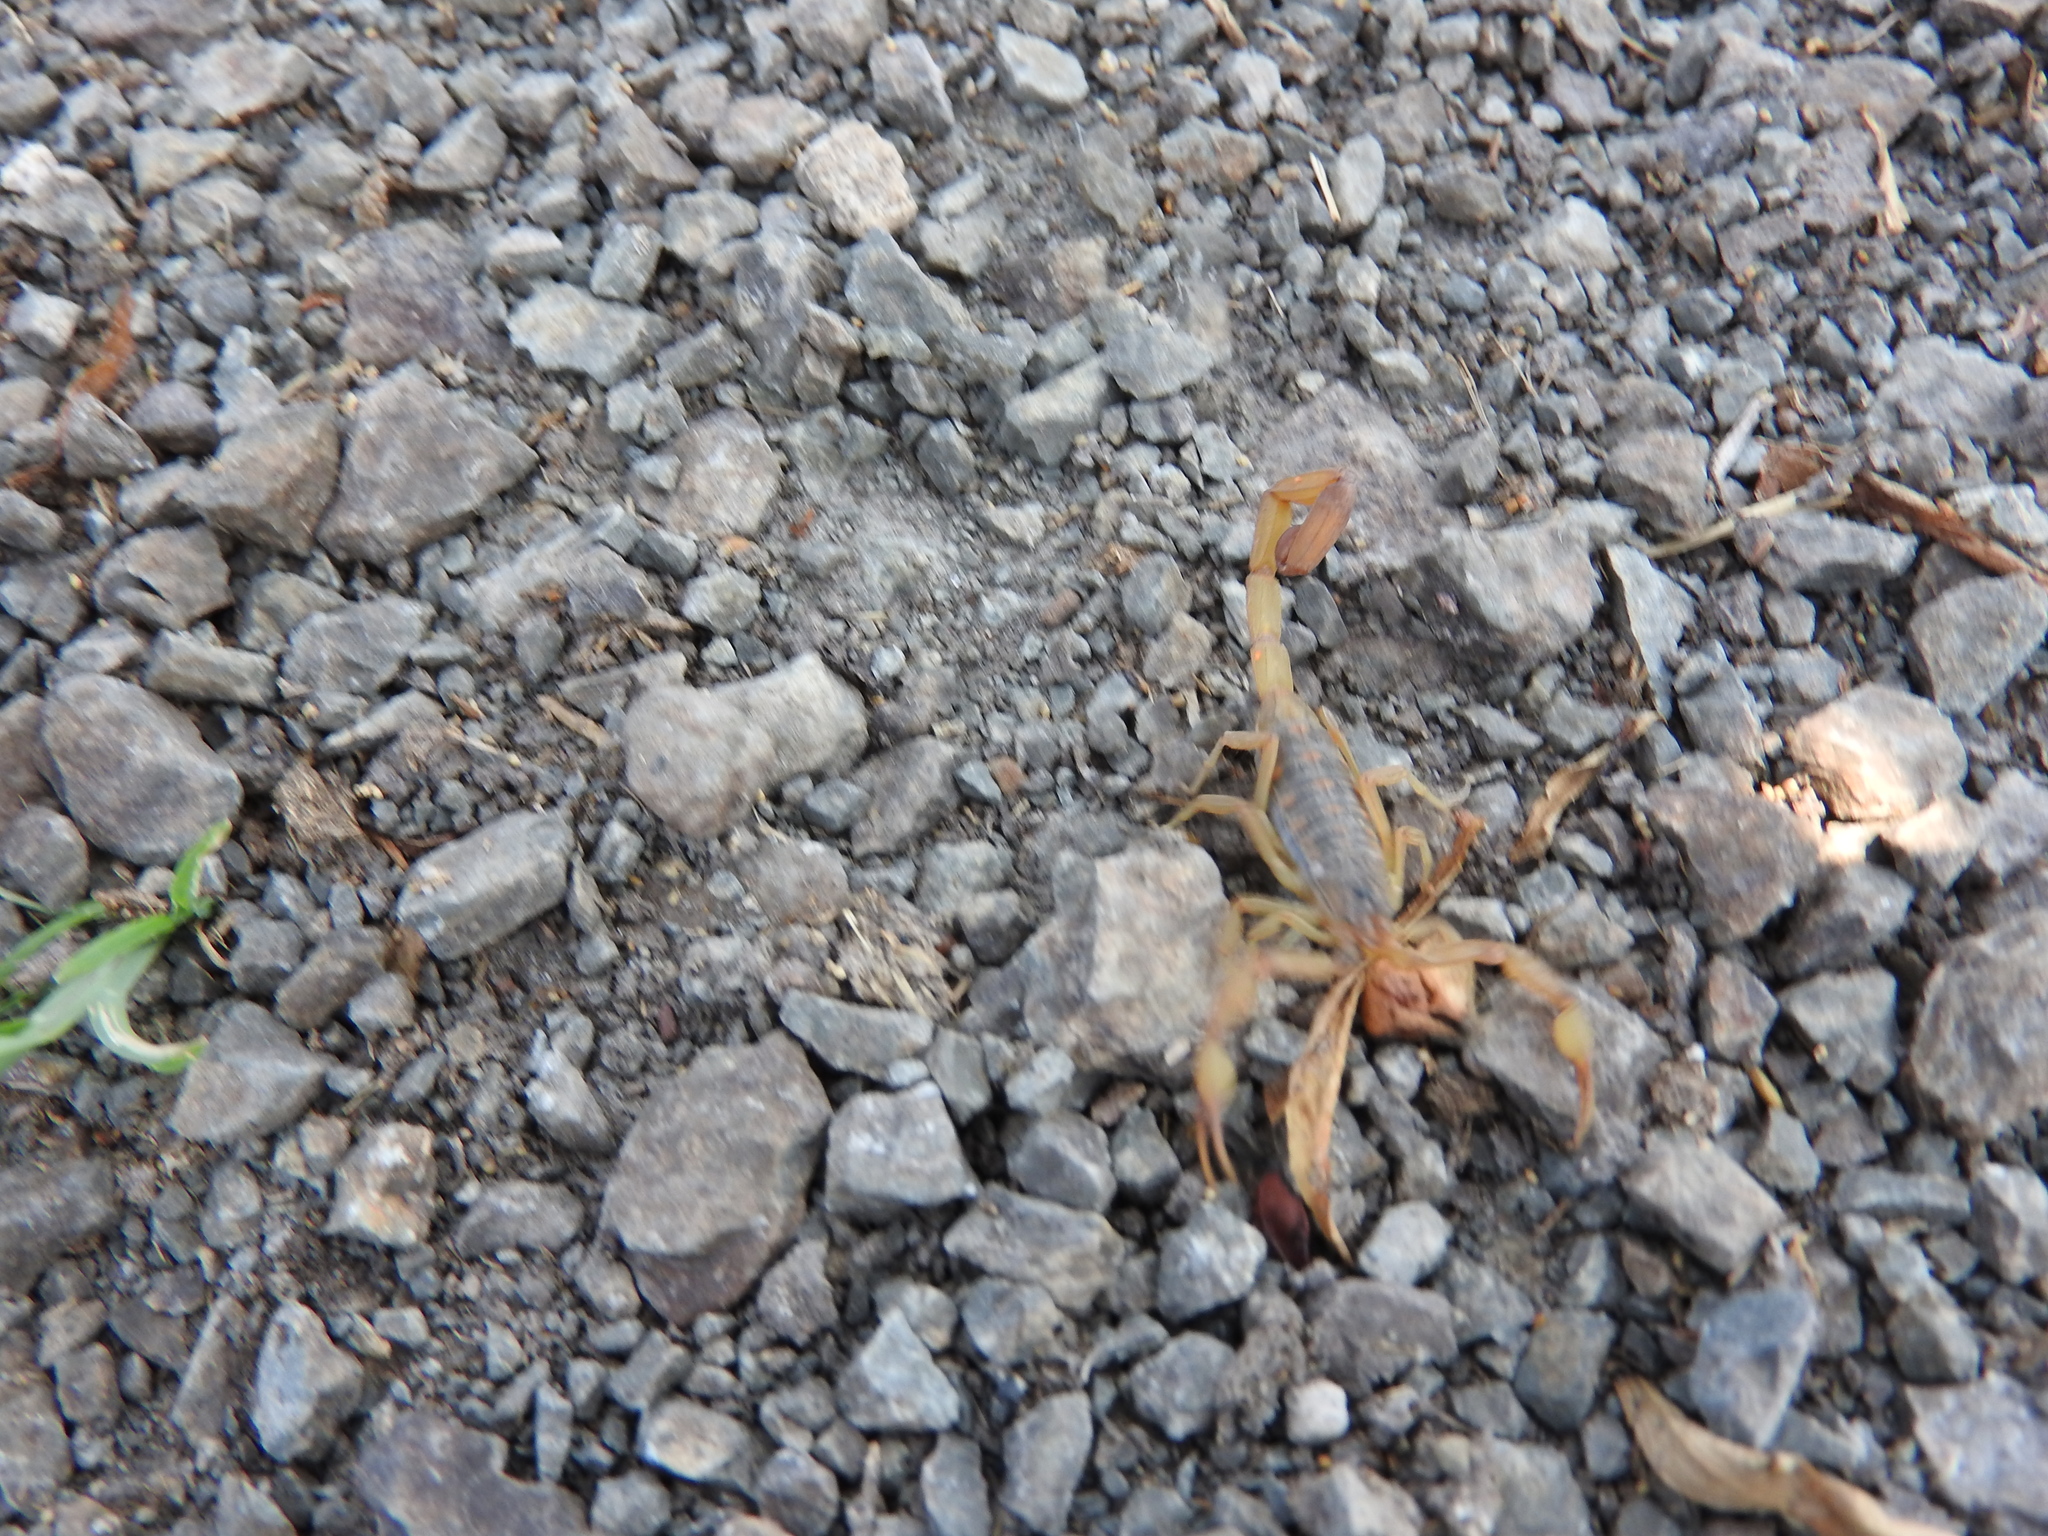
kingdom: Animalia
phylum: Arthropoda
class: Arachnida
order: Scorpiones
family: Buthidae
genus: Centruroides
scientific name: Centruroides ornatus
